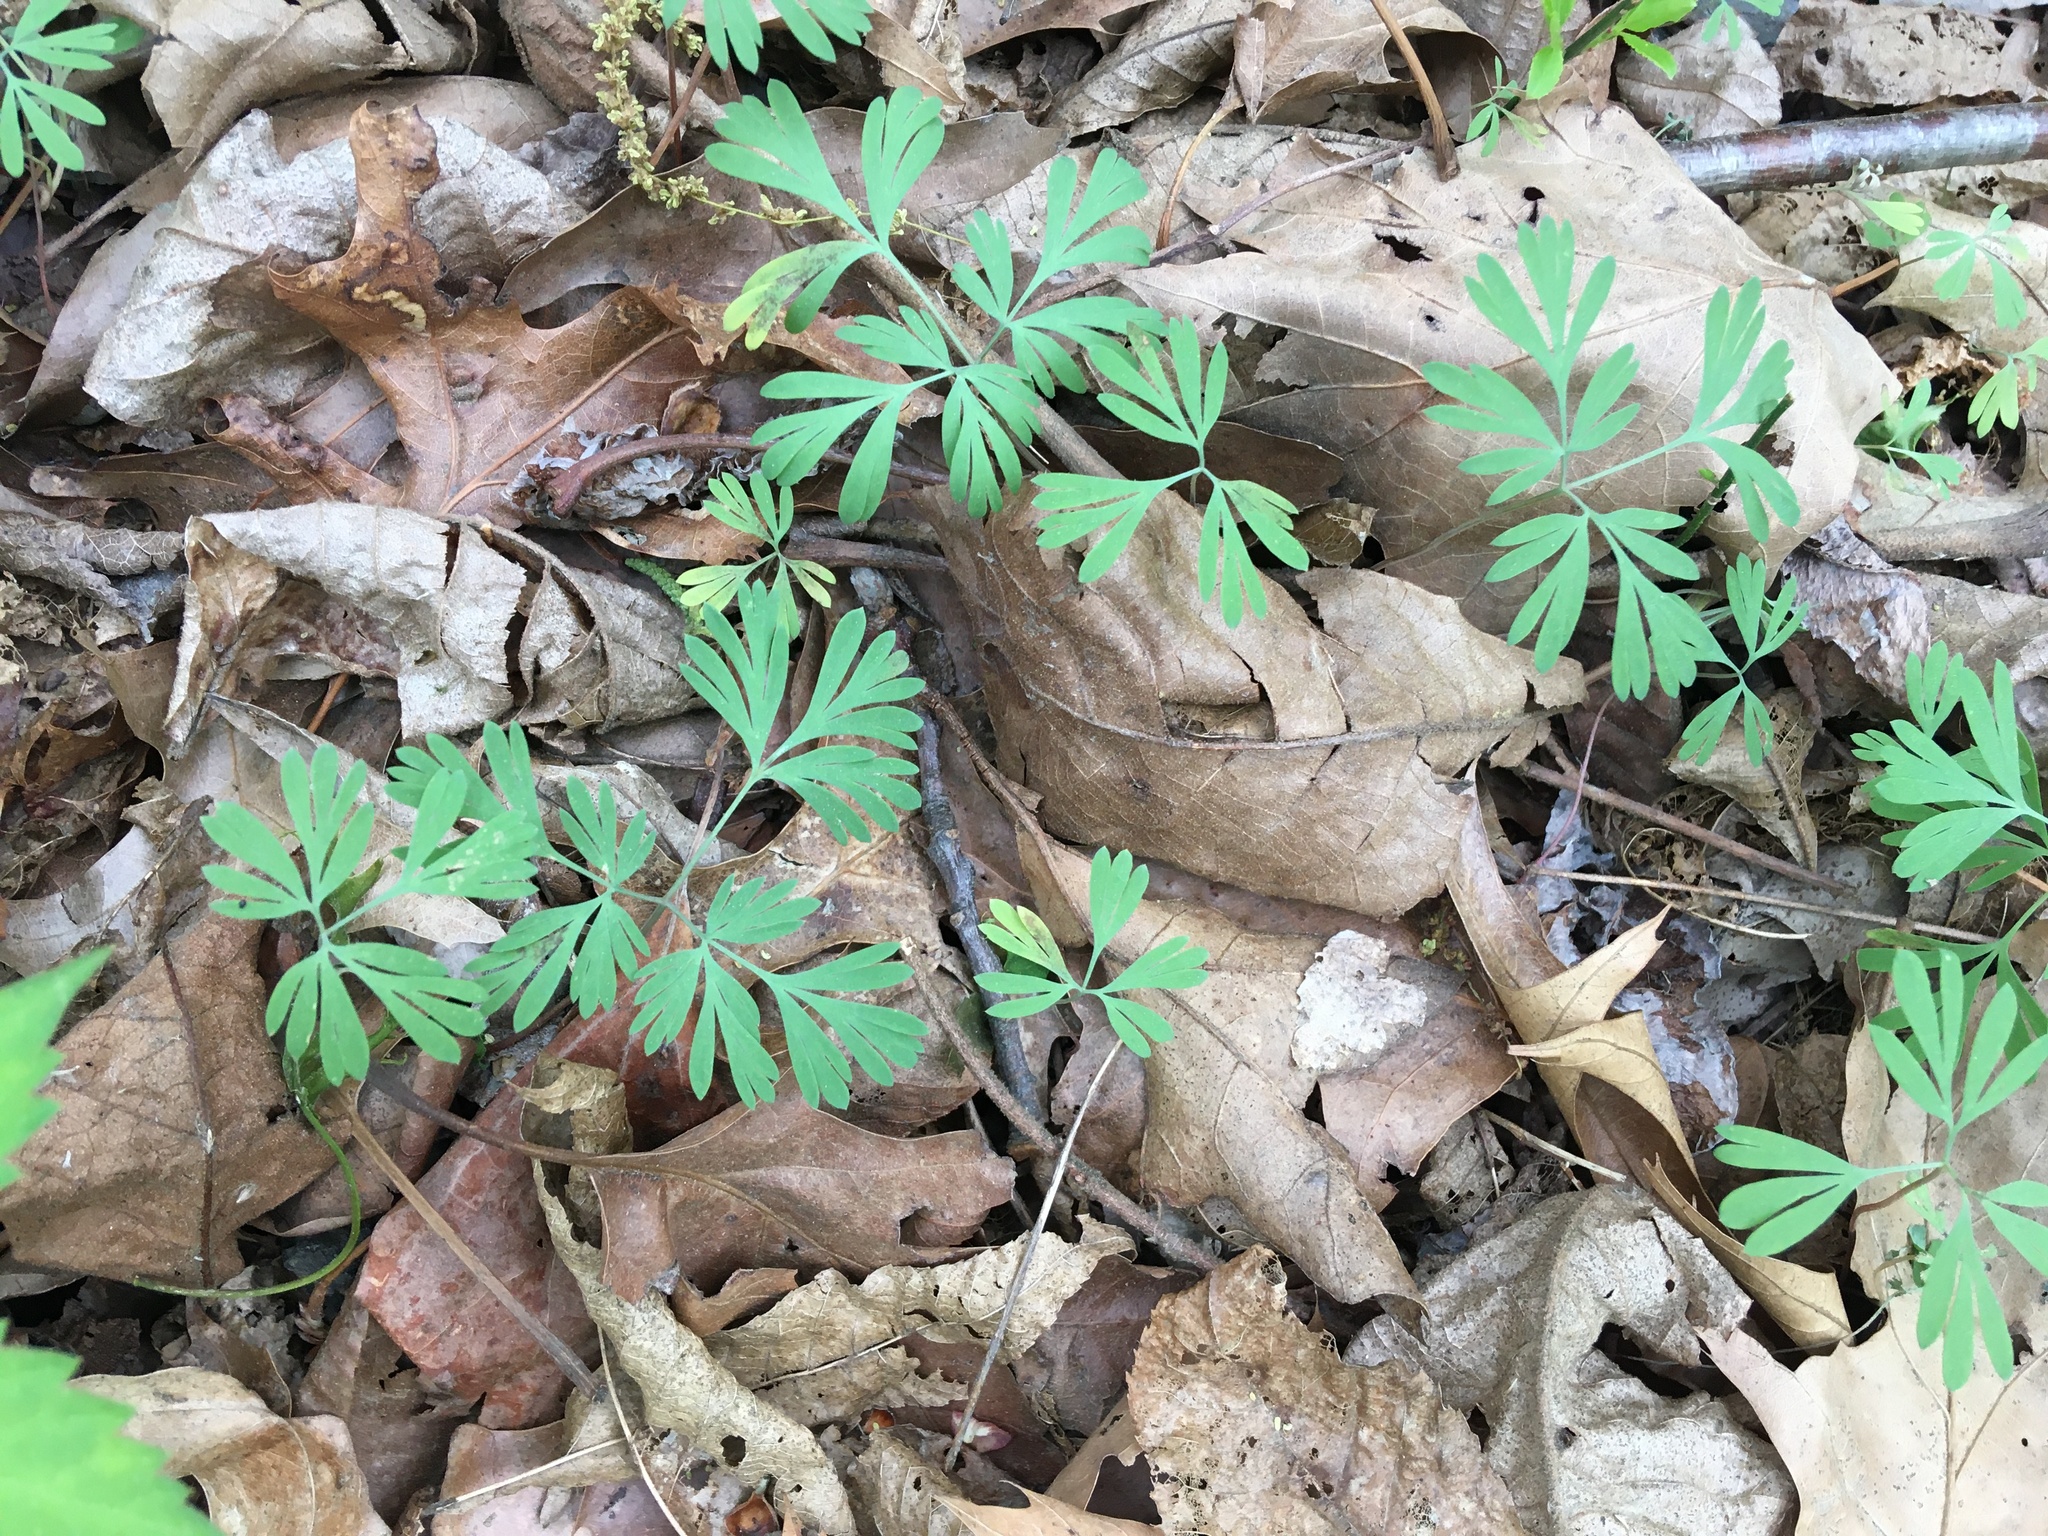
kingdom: Plantae
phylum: Tracheophyta
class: Magnoliopsida
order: Ranunculales
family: Papaveraceae
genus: Dicentra
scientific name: Dicentra cucullaria
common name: Dutchman's breeches
